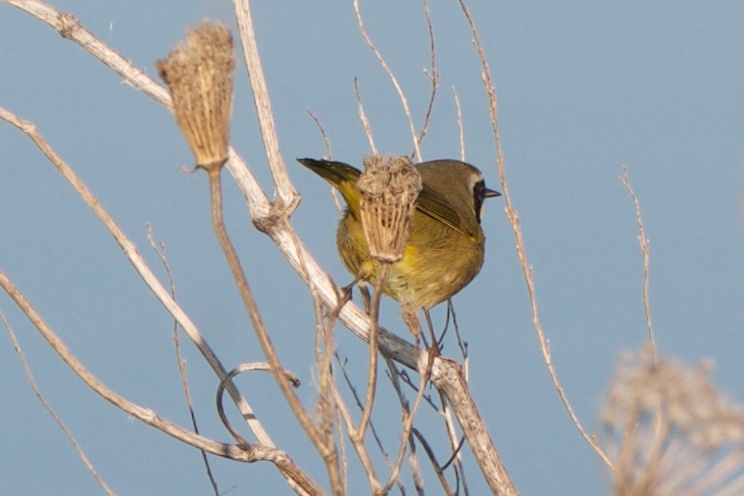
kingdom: Animalia
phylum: Chordata
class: Aves
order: Passeriformes
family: Parulidae
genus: Geothlypis
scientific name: Geothlypis trichas
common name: Common yellowthroat
